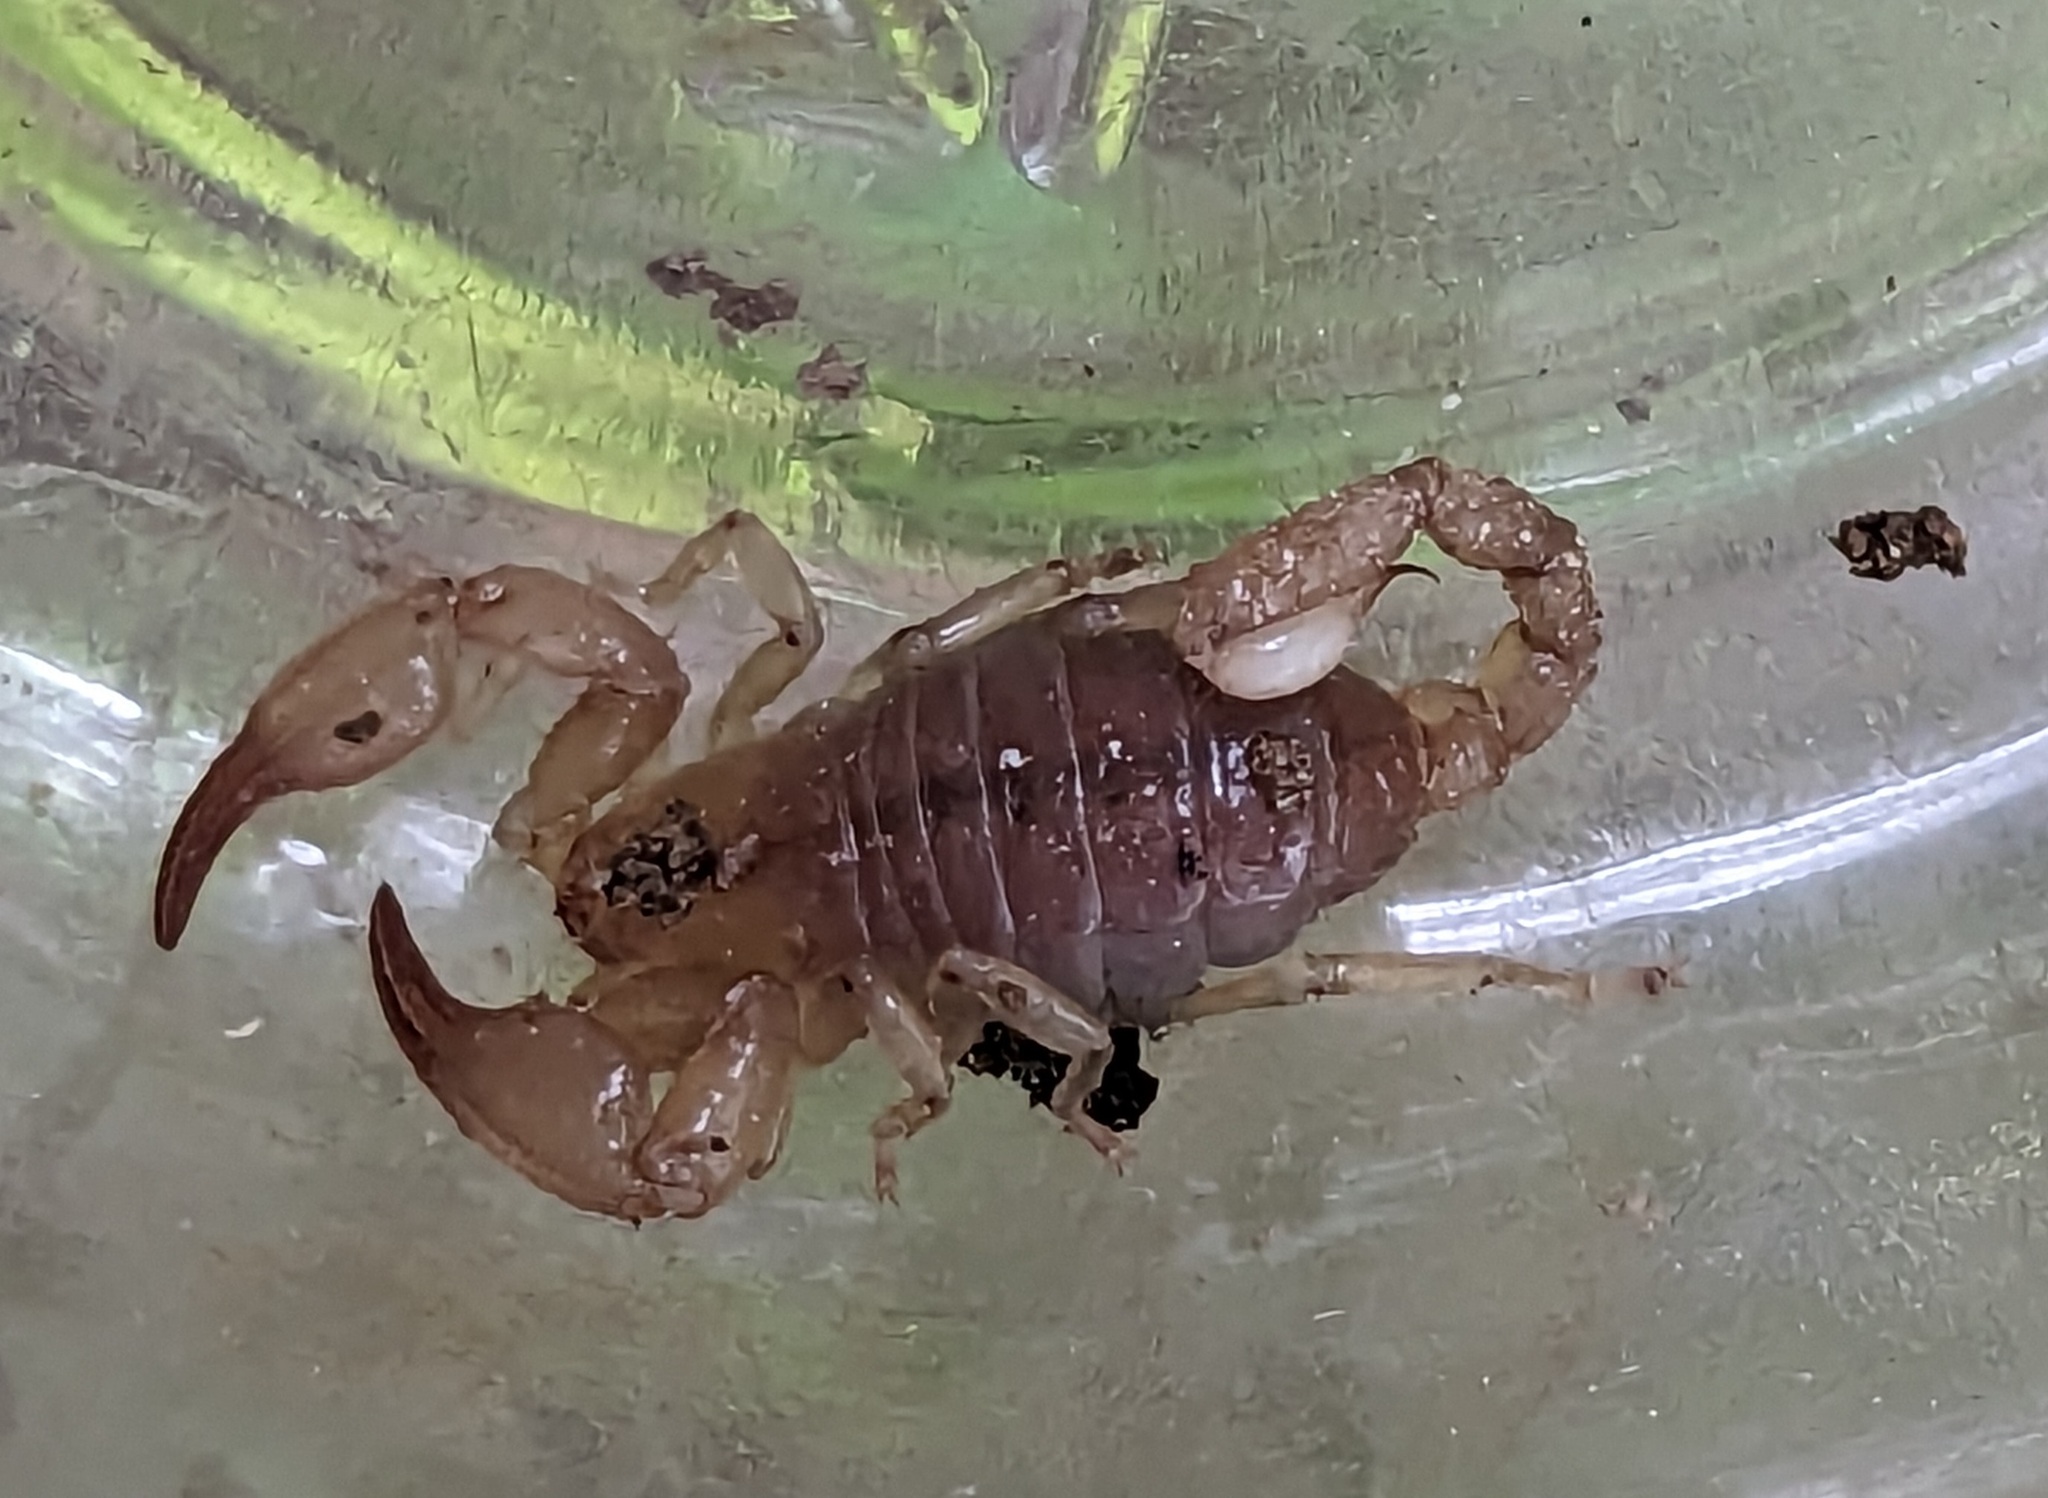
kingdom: Animalia
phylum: Arthropoda
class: Arachnida
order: Scorpiones
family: Belisariidae
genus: Belisarius
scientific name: Belisarius xambeui
